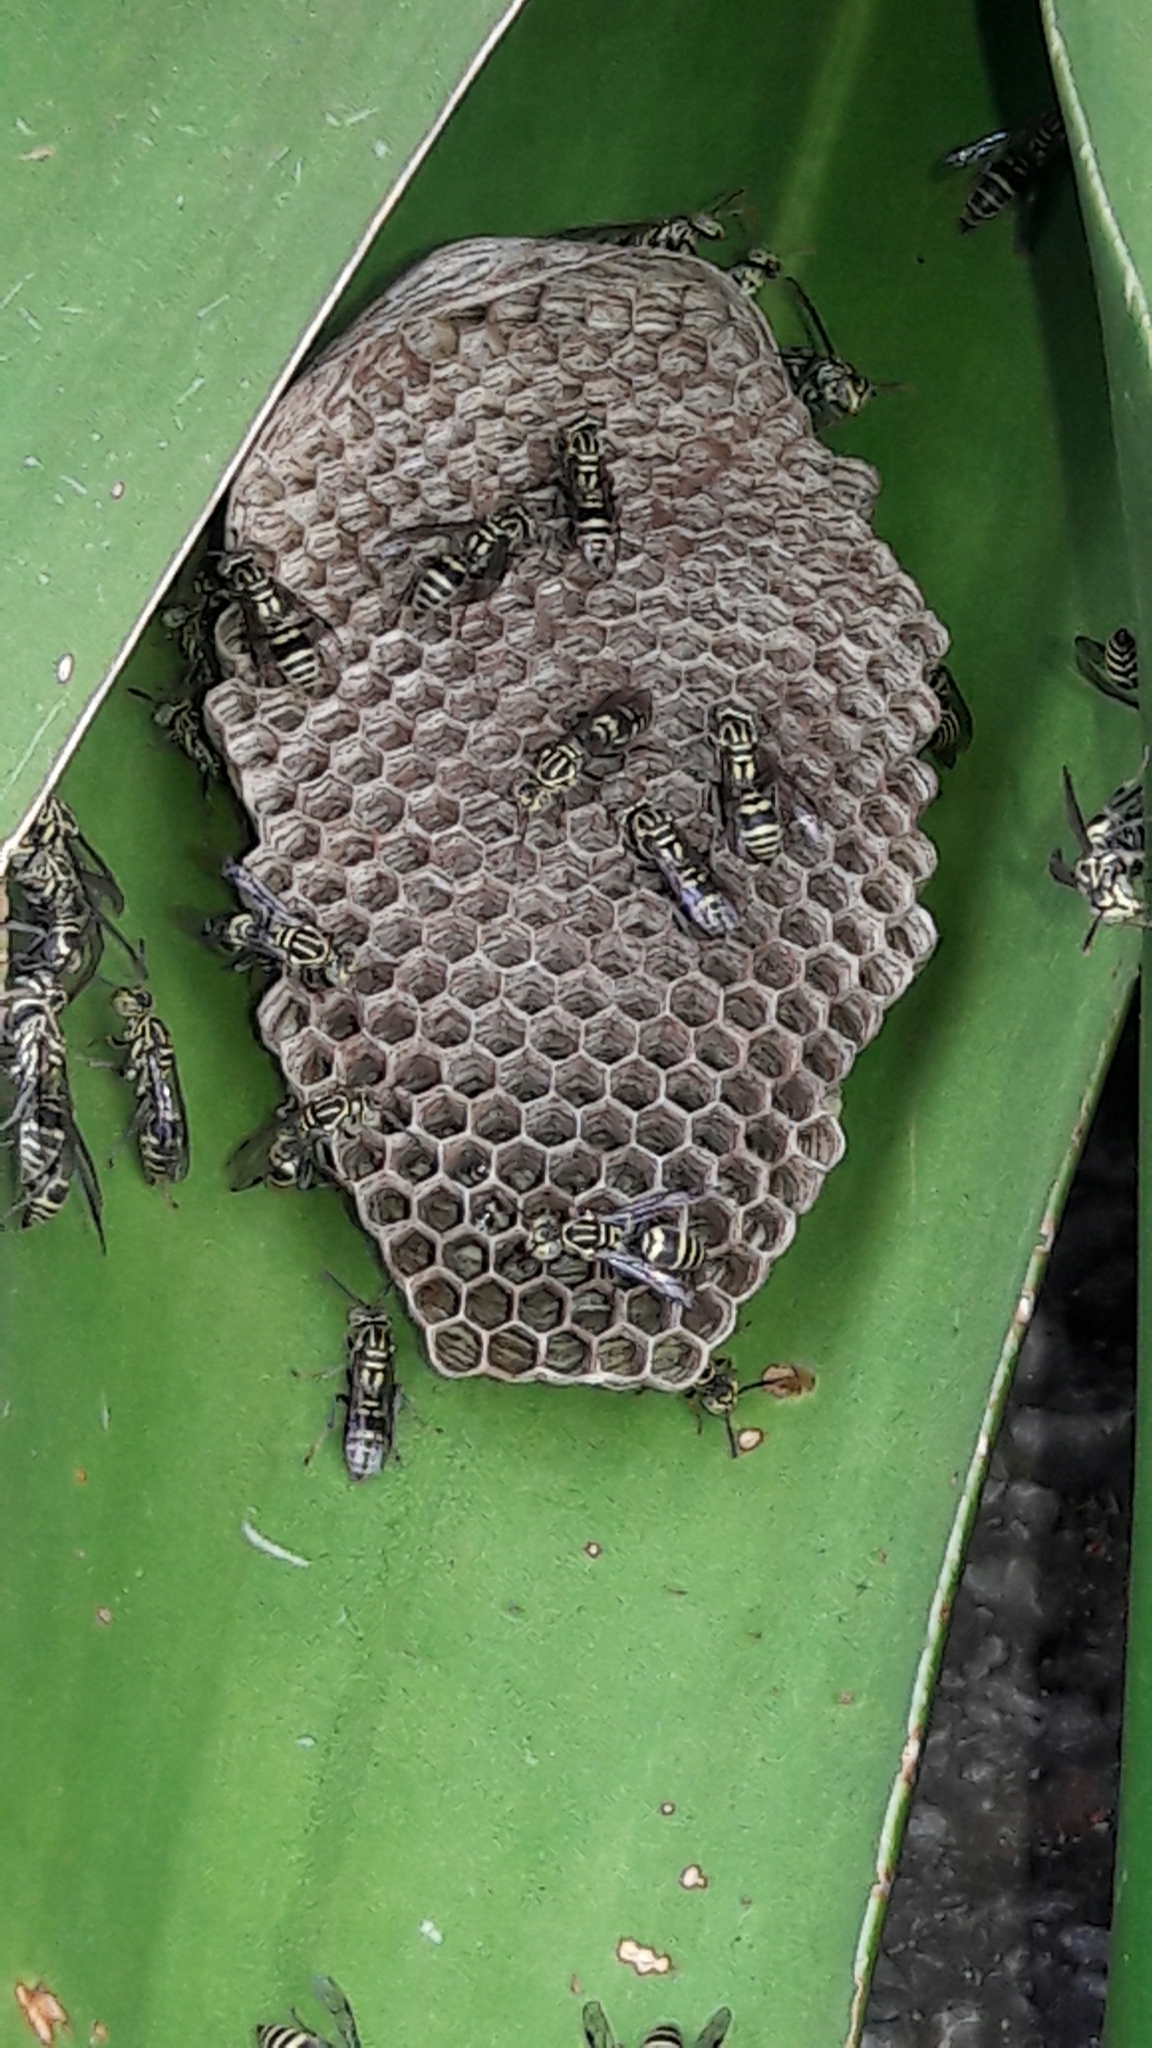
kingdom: Animalia
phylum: Arthropoda
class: Insecta
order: Hymenoptera
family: Vespidae
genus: Protopolybia
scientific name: Protopolybia exigua
